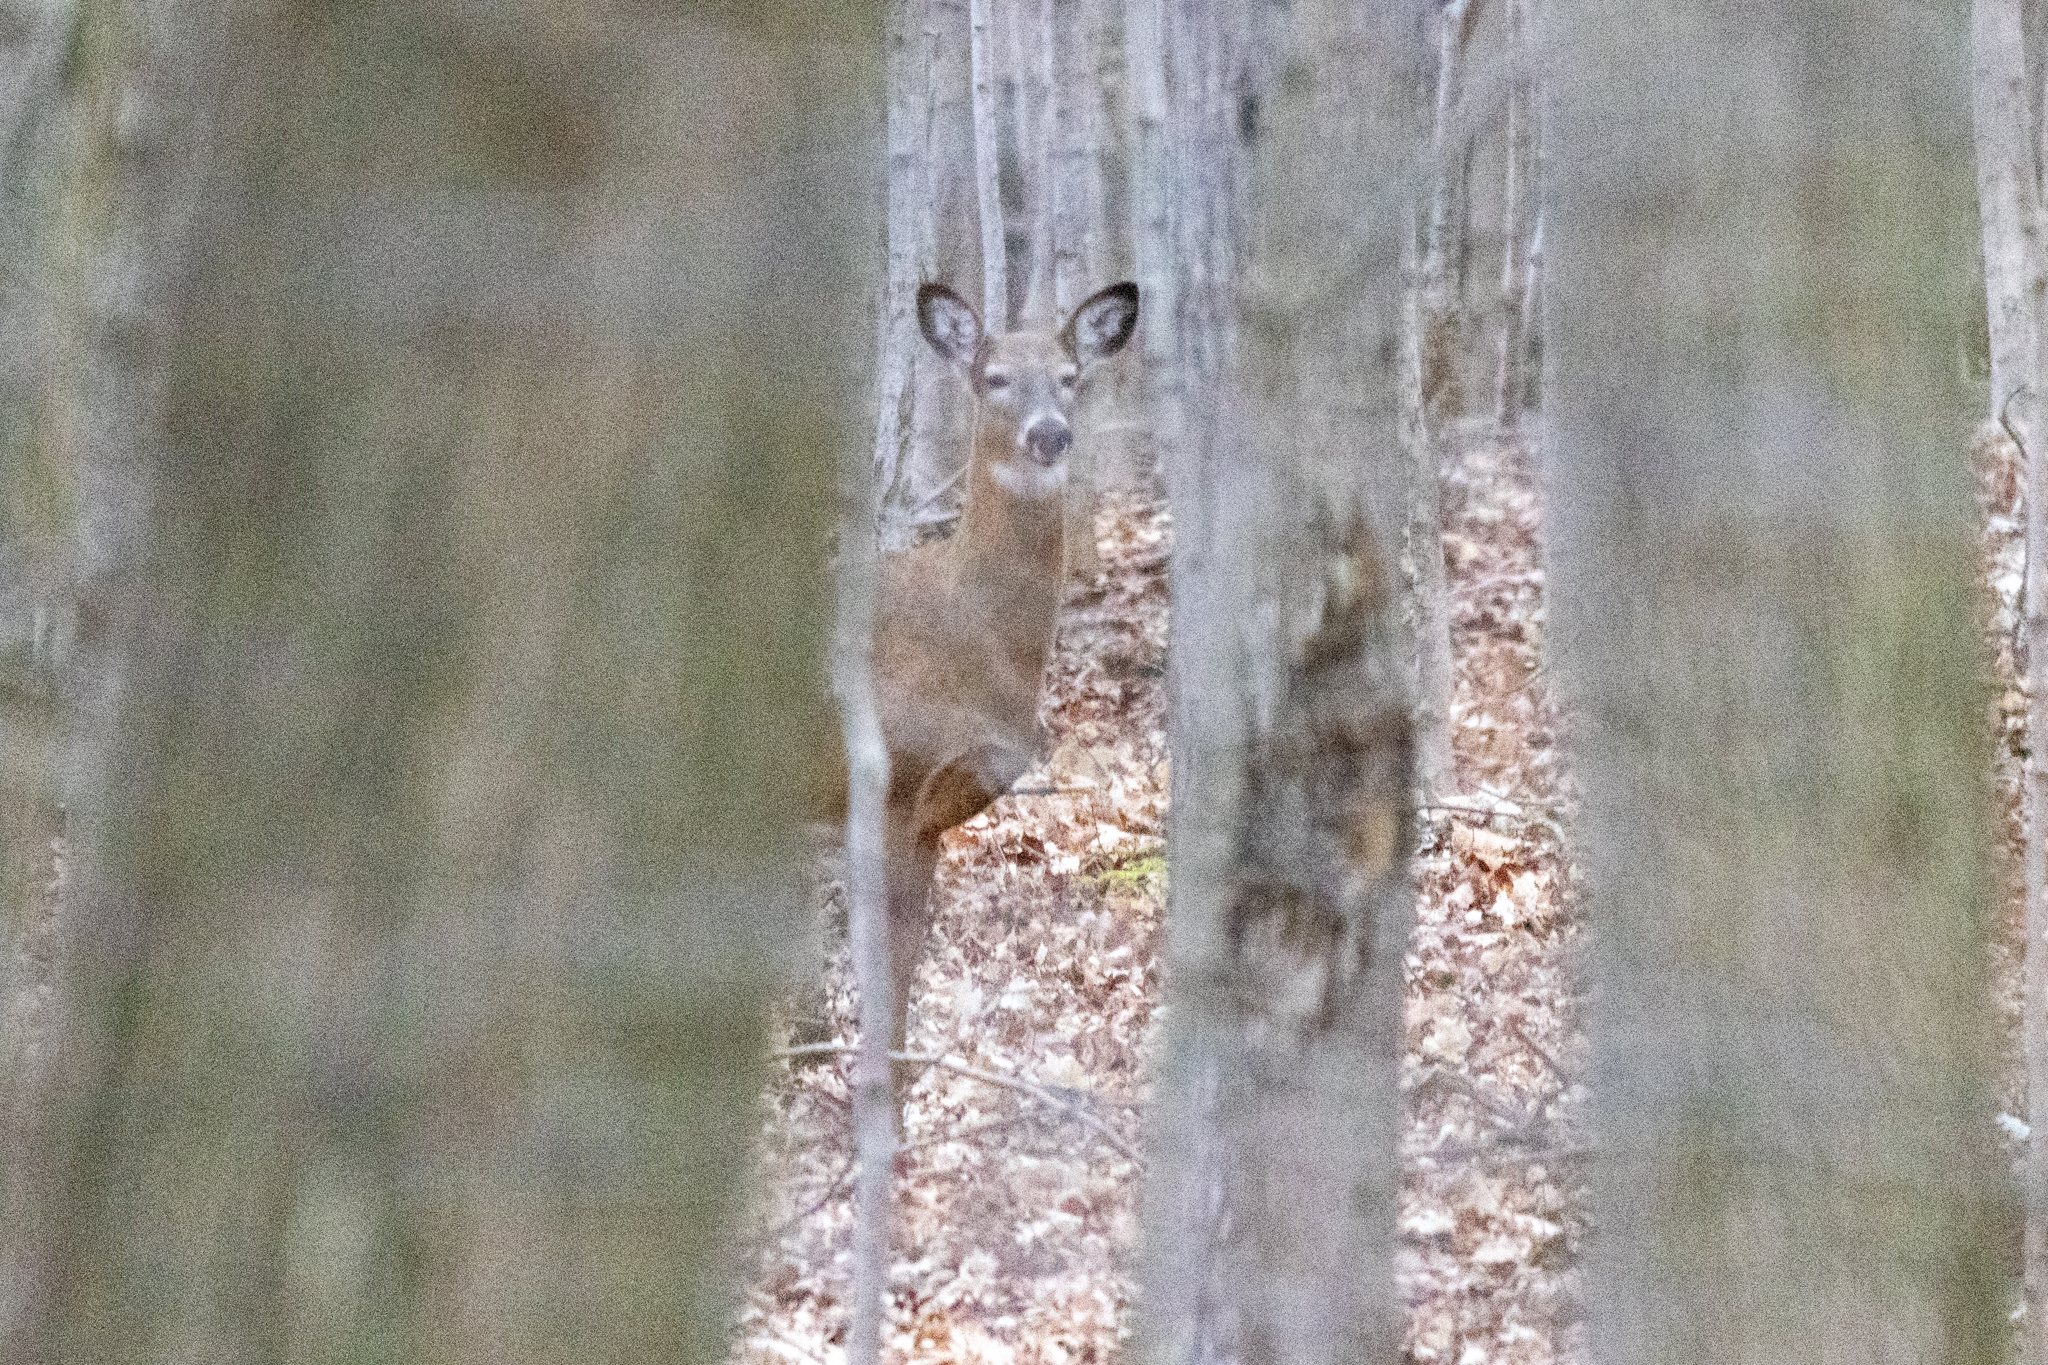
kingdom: Animalia
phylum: Chordata
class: Mammalia
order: Artiodactyla
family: Cervidae
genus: Odocoileus
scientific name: Odocoileus virginianus
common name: White-tailed deer
